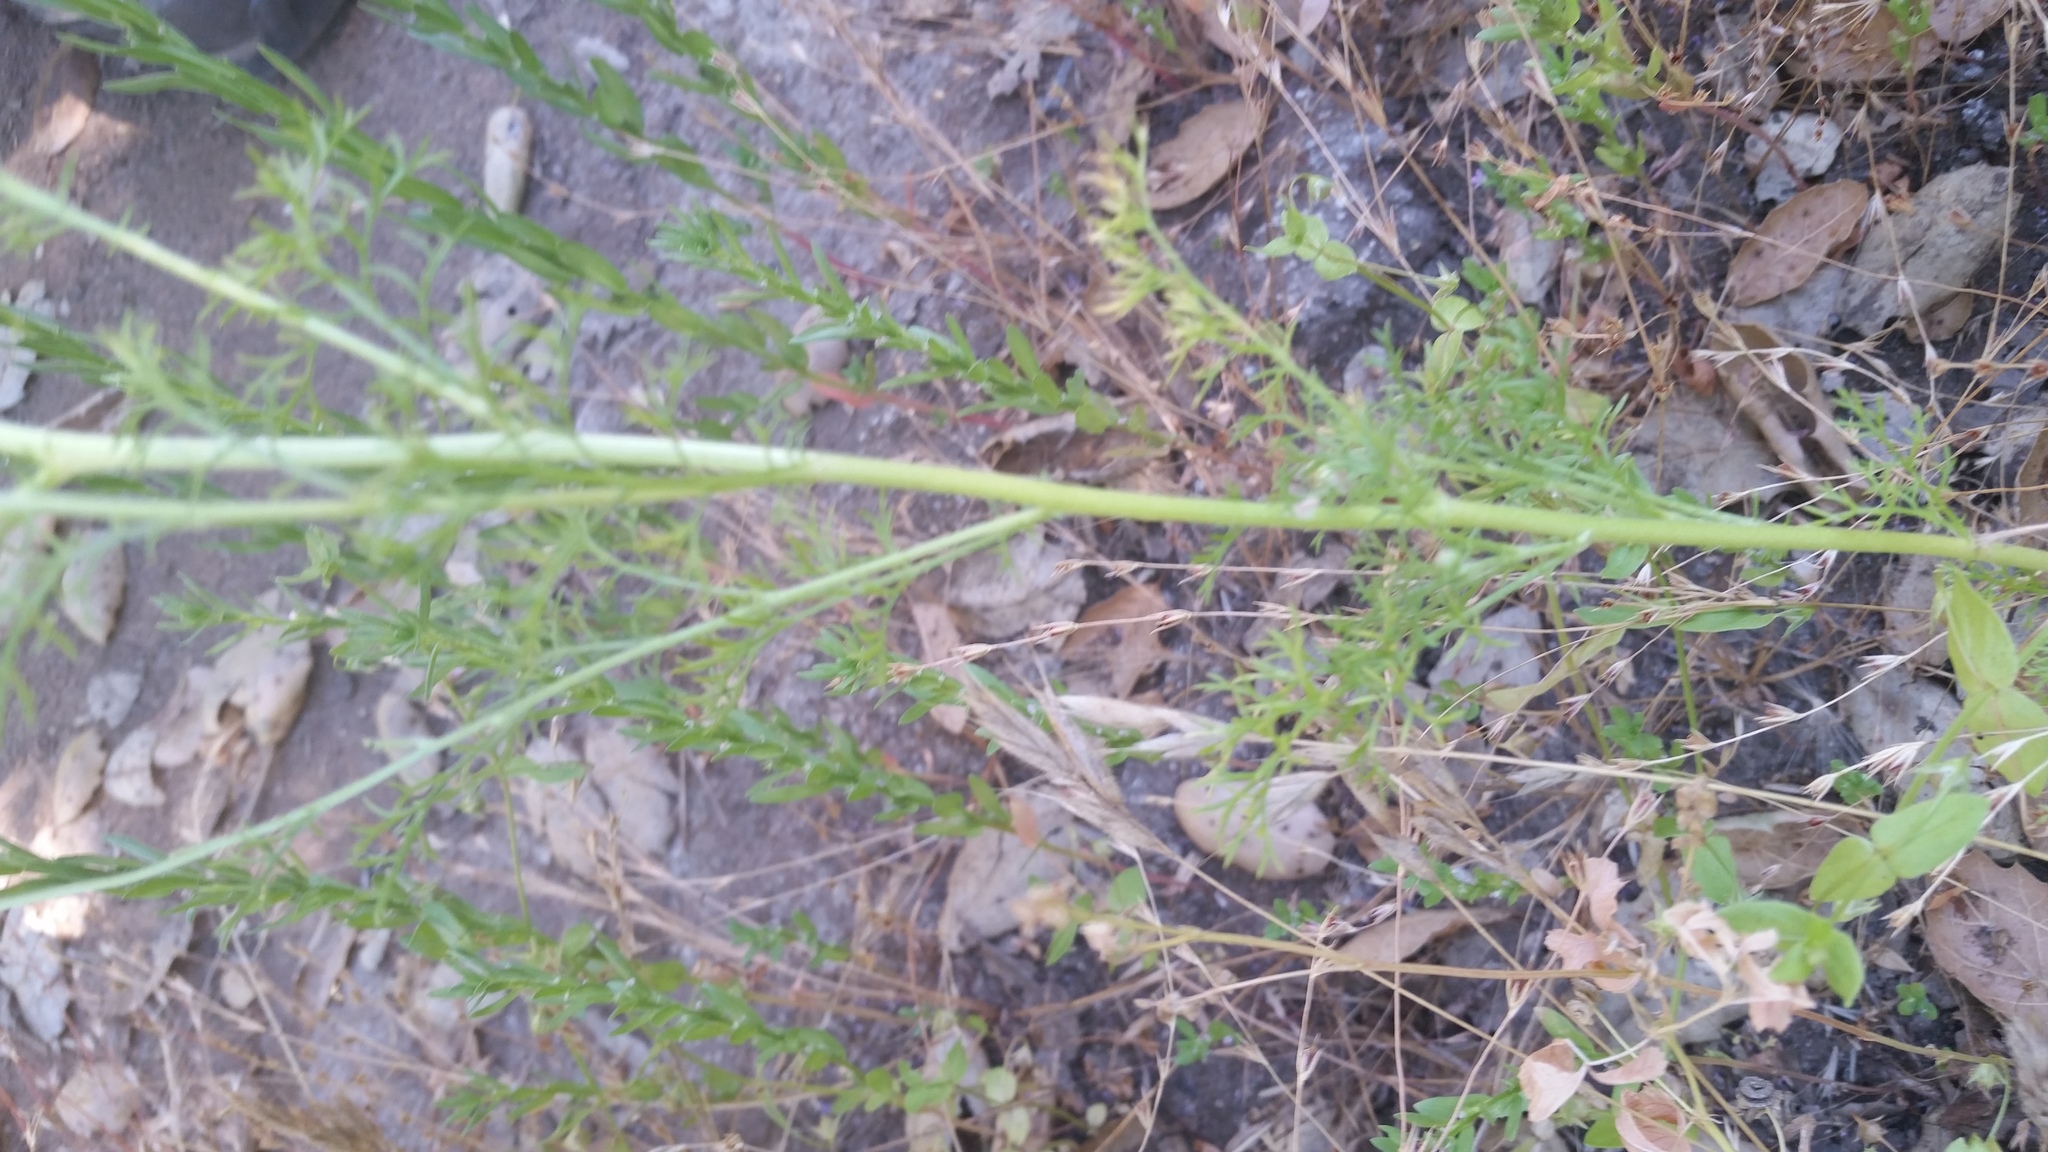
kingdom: Plantae
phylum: Tracheophyta
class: Magnoliopsida
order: Asterales
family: Asteraceae
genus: Anthemis
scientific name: Anthemis cotula
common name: Stinking chamomile
